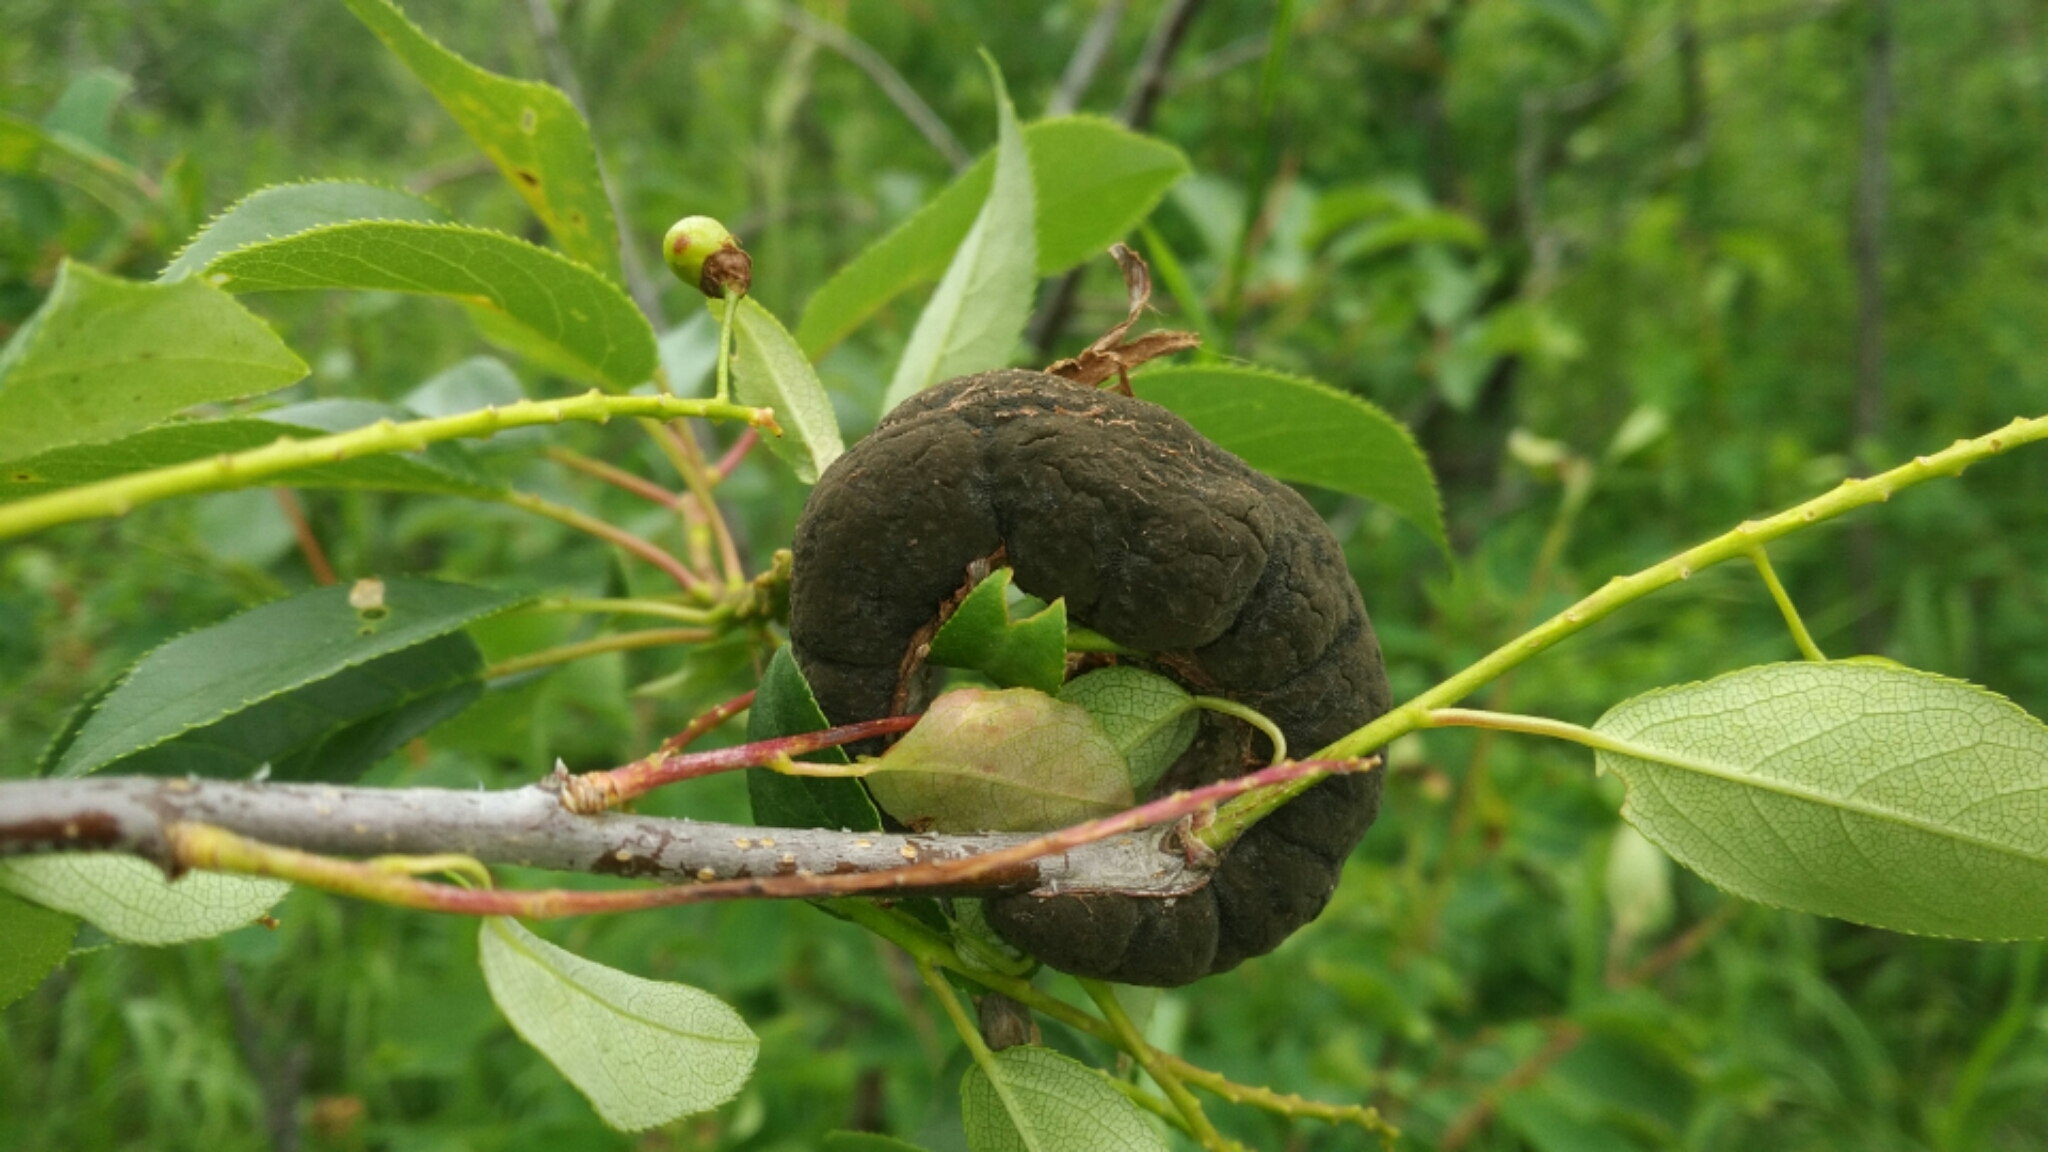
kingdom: Fungi
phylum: Ascomycota
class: Dothideomycetes
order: Venturiales
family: Venturiaceae
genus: Apiosporina
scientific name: Apiosporina morbosa
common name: Black knot
